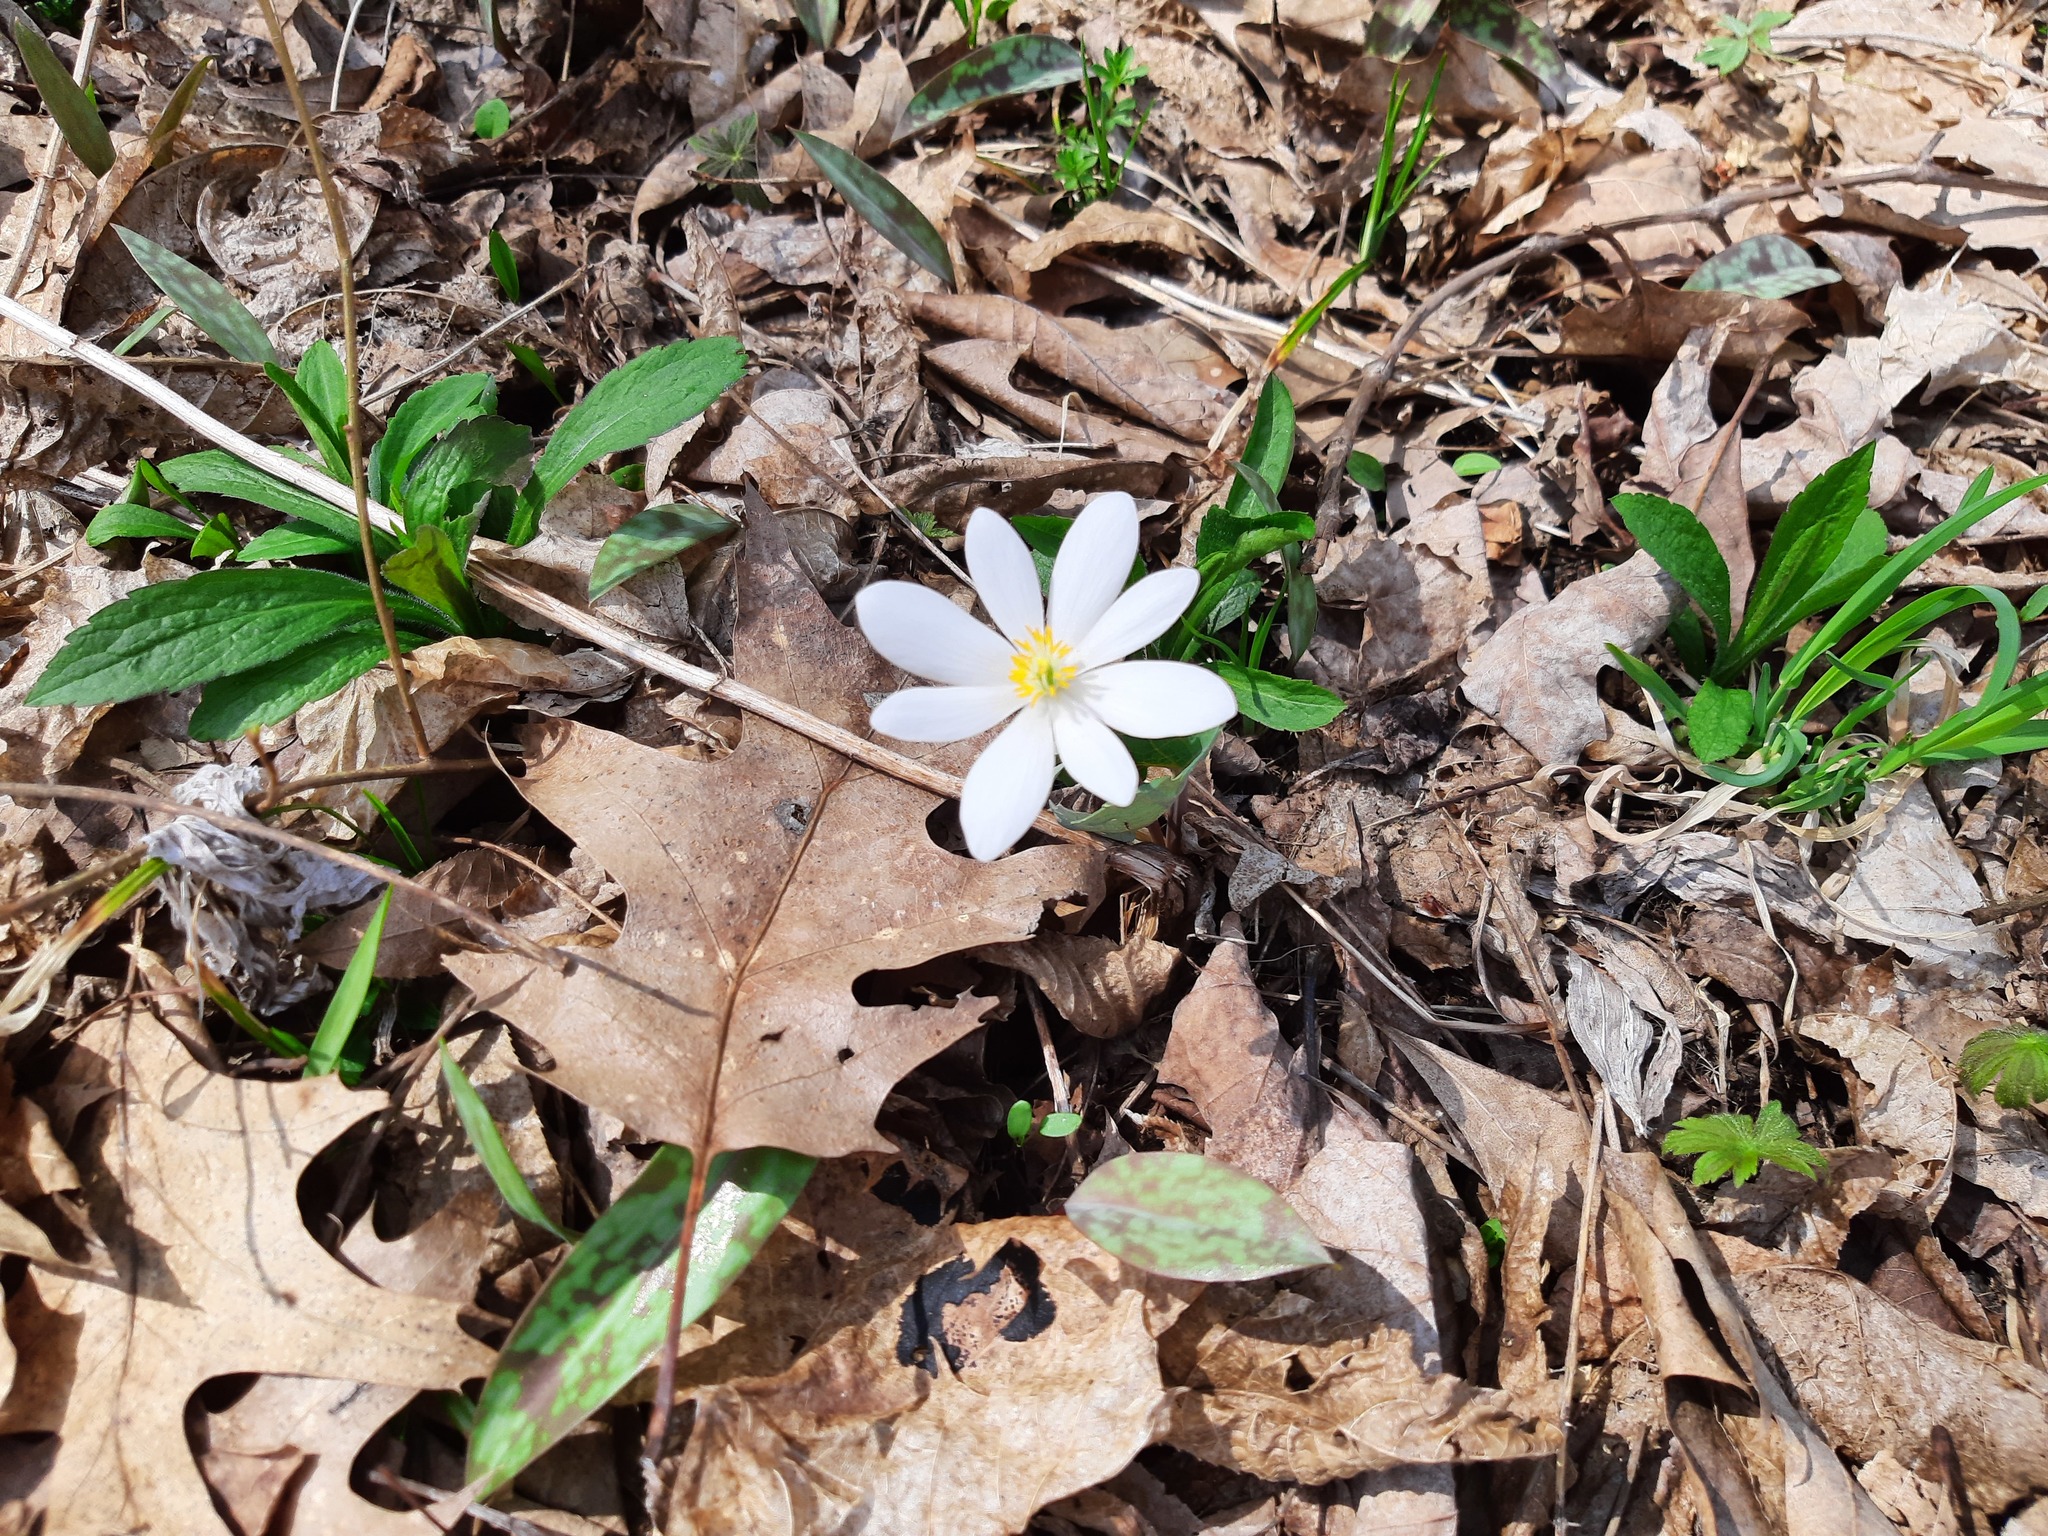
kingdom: Plantae
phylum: Tracheophyta
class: Magnoliopsida
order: Ranunculales
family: Papaveraceae
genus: Sanguinaria
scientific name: Sanguinaria canadensis
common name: Bloodroot
